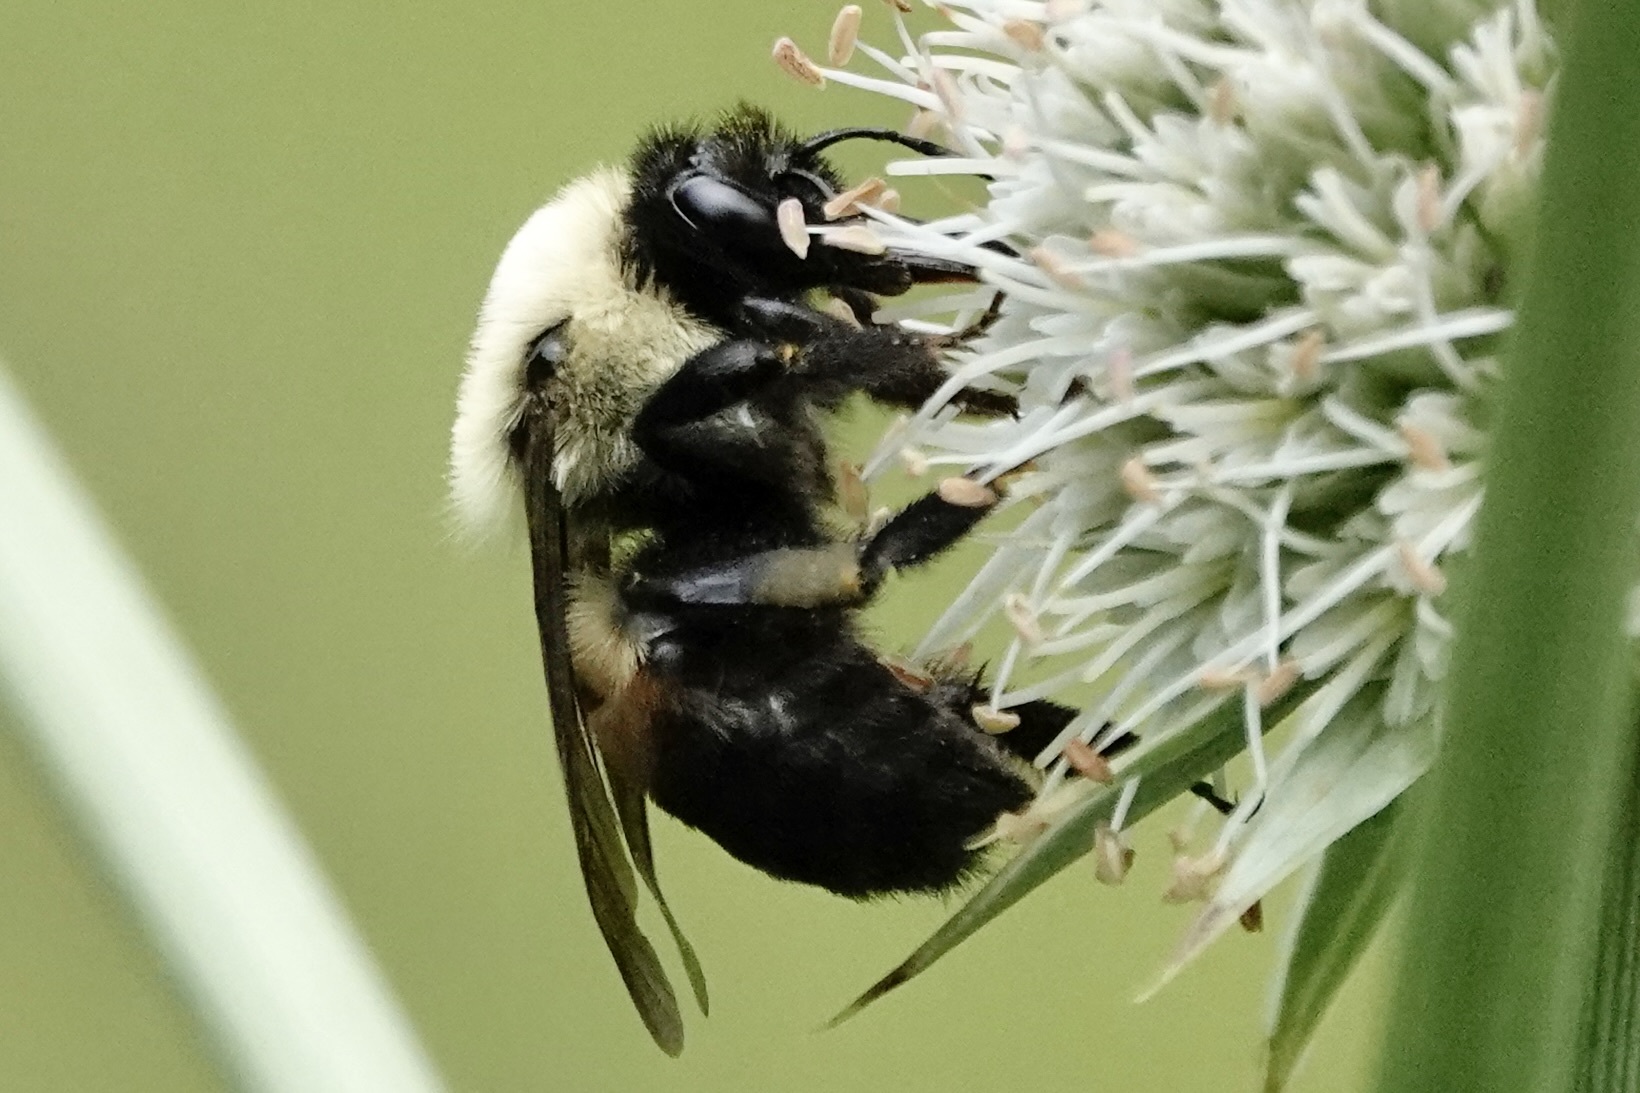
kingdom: Animalia
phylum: Arthropoda
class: Insecta
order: Hymenoptera
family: Apidae
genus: Bombus
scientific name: Bombus griseocollis
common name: Brown-belted bumble bee
